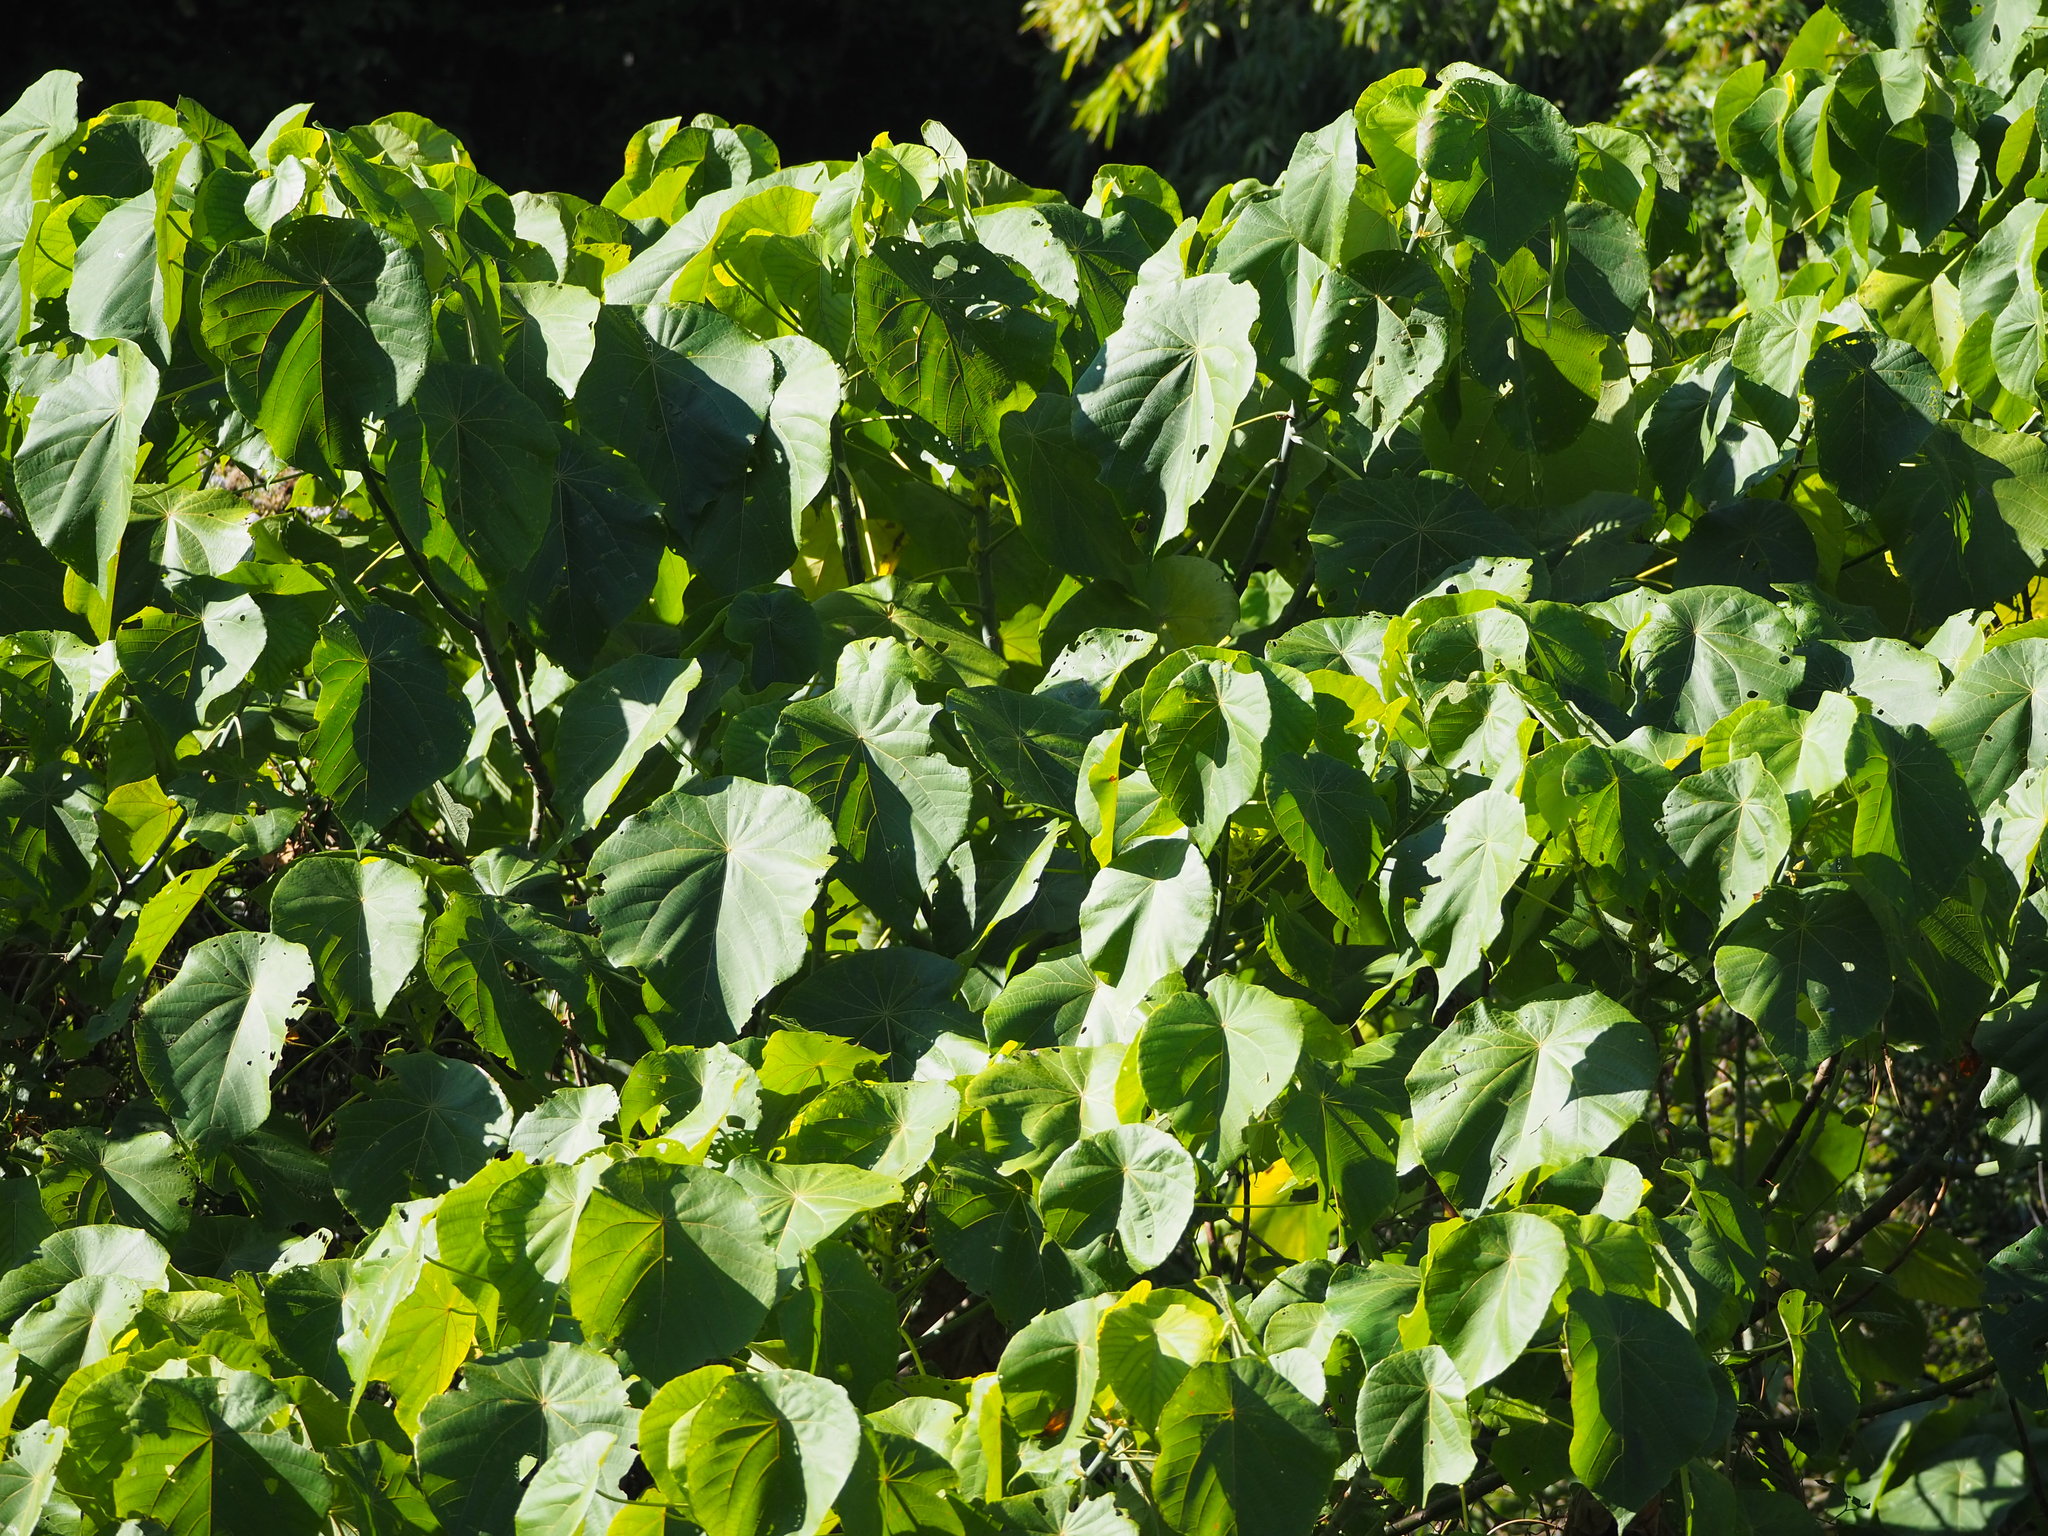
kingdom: Plantae
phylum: Tracheophyta
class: Magnoliopsida
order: Malpighiales
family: Euphorbiaceae
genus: Macaranga
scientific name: Macaranga tanarius
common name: Parasol leaf tree
